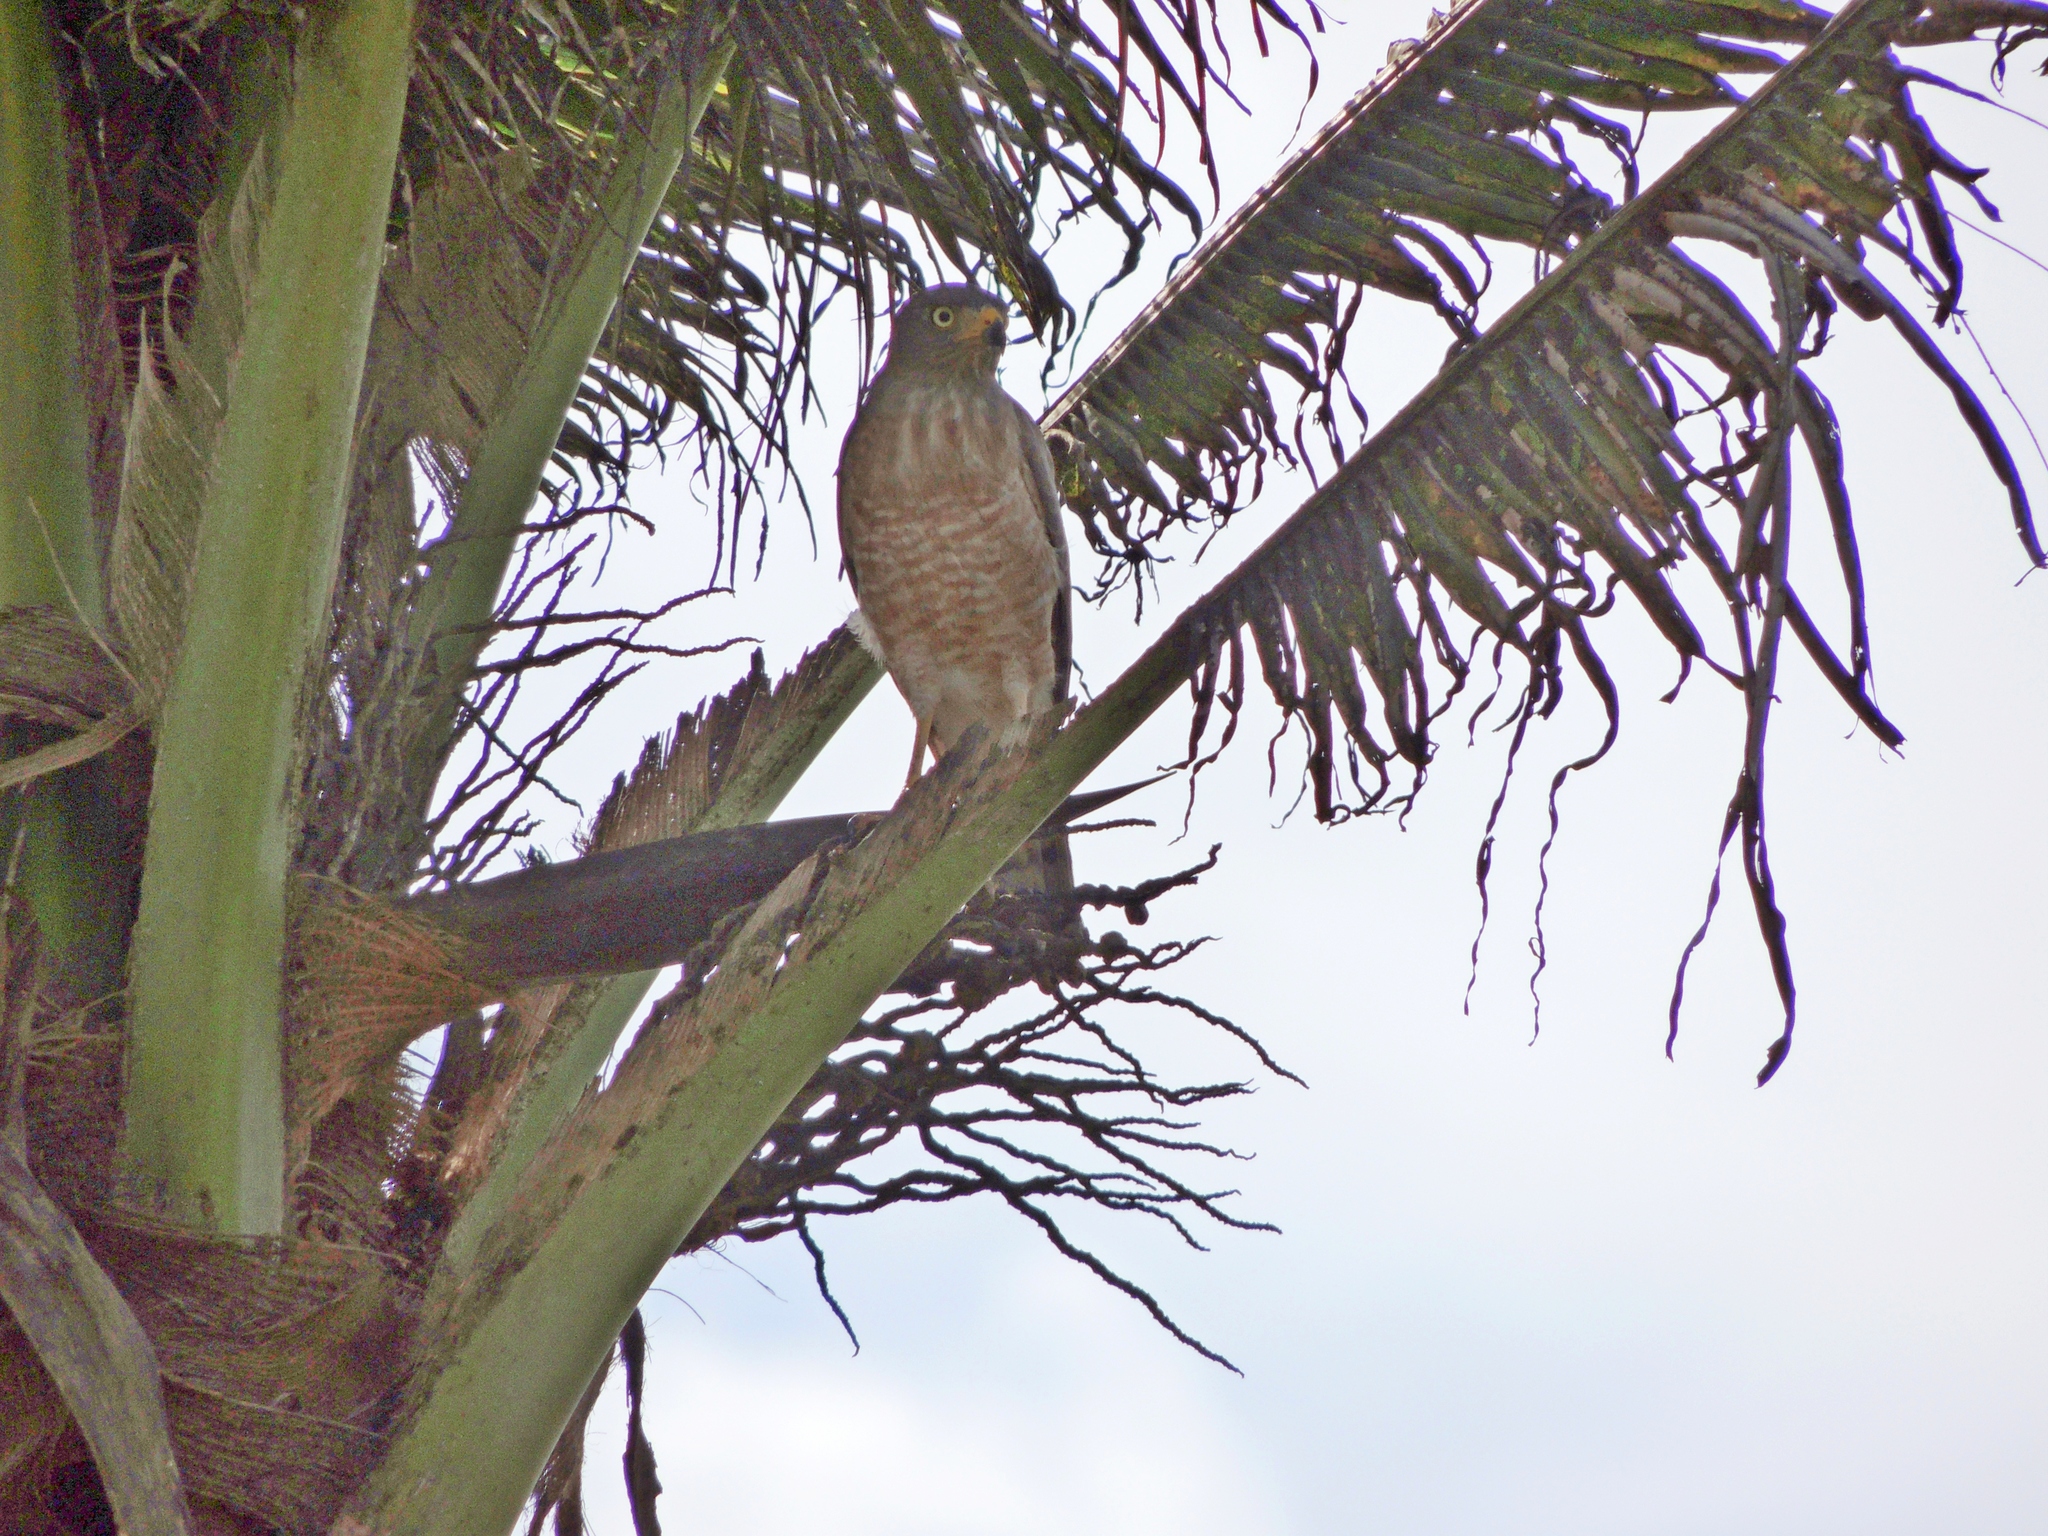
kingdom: Animalia
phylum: Chordata
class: Aves
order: Accipitriformes
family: Accipitridae
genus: Rupornis
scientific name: Rupornis magnirostris
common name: Roadside hawk
